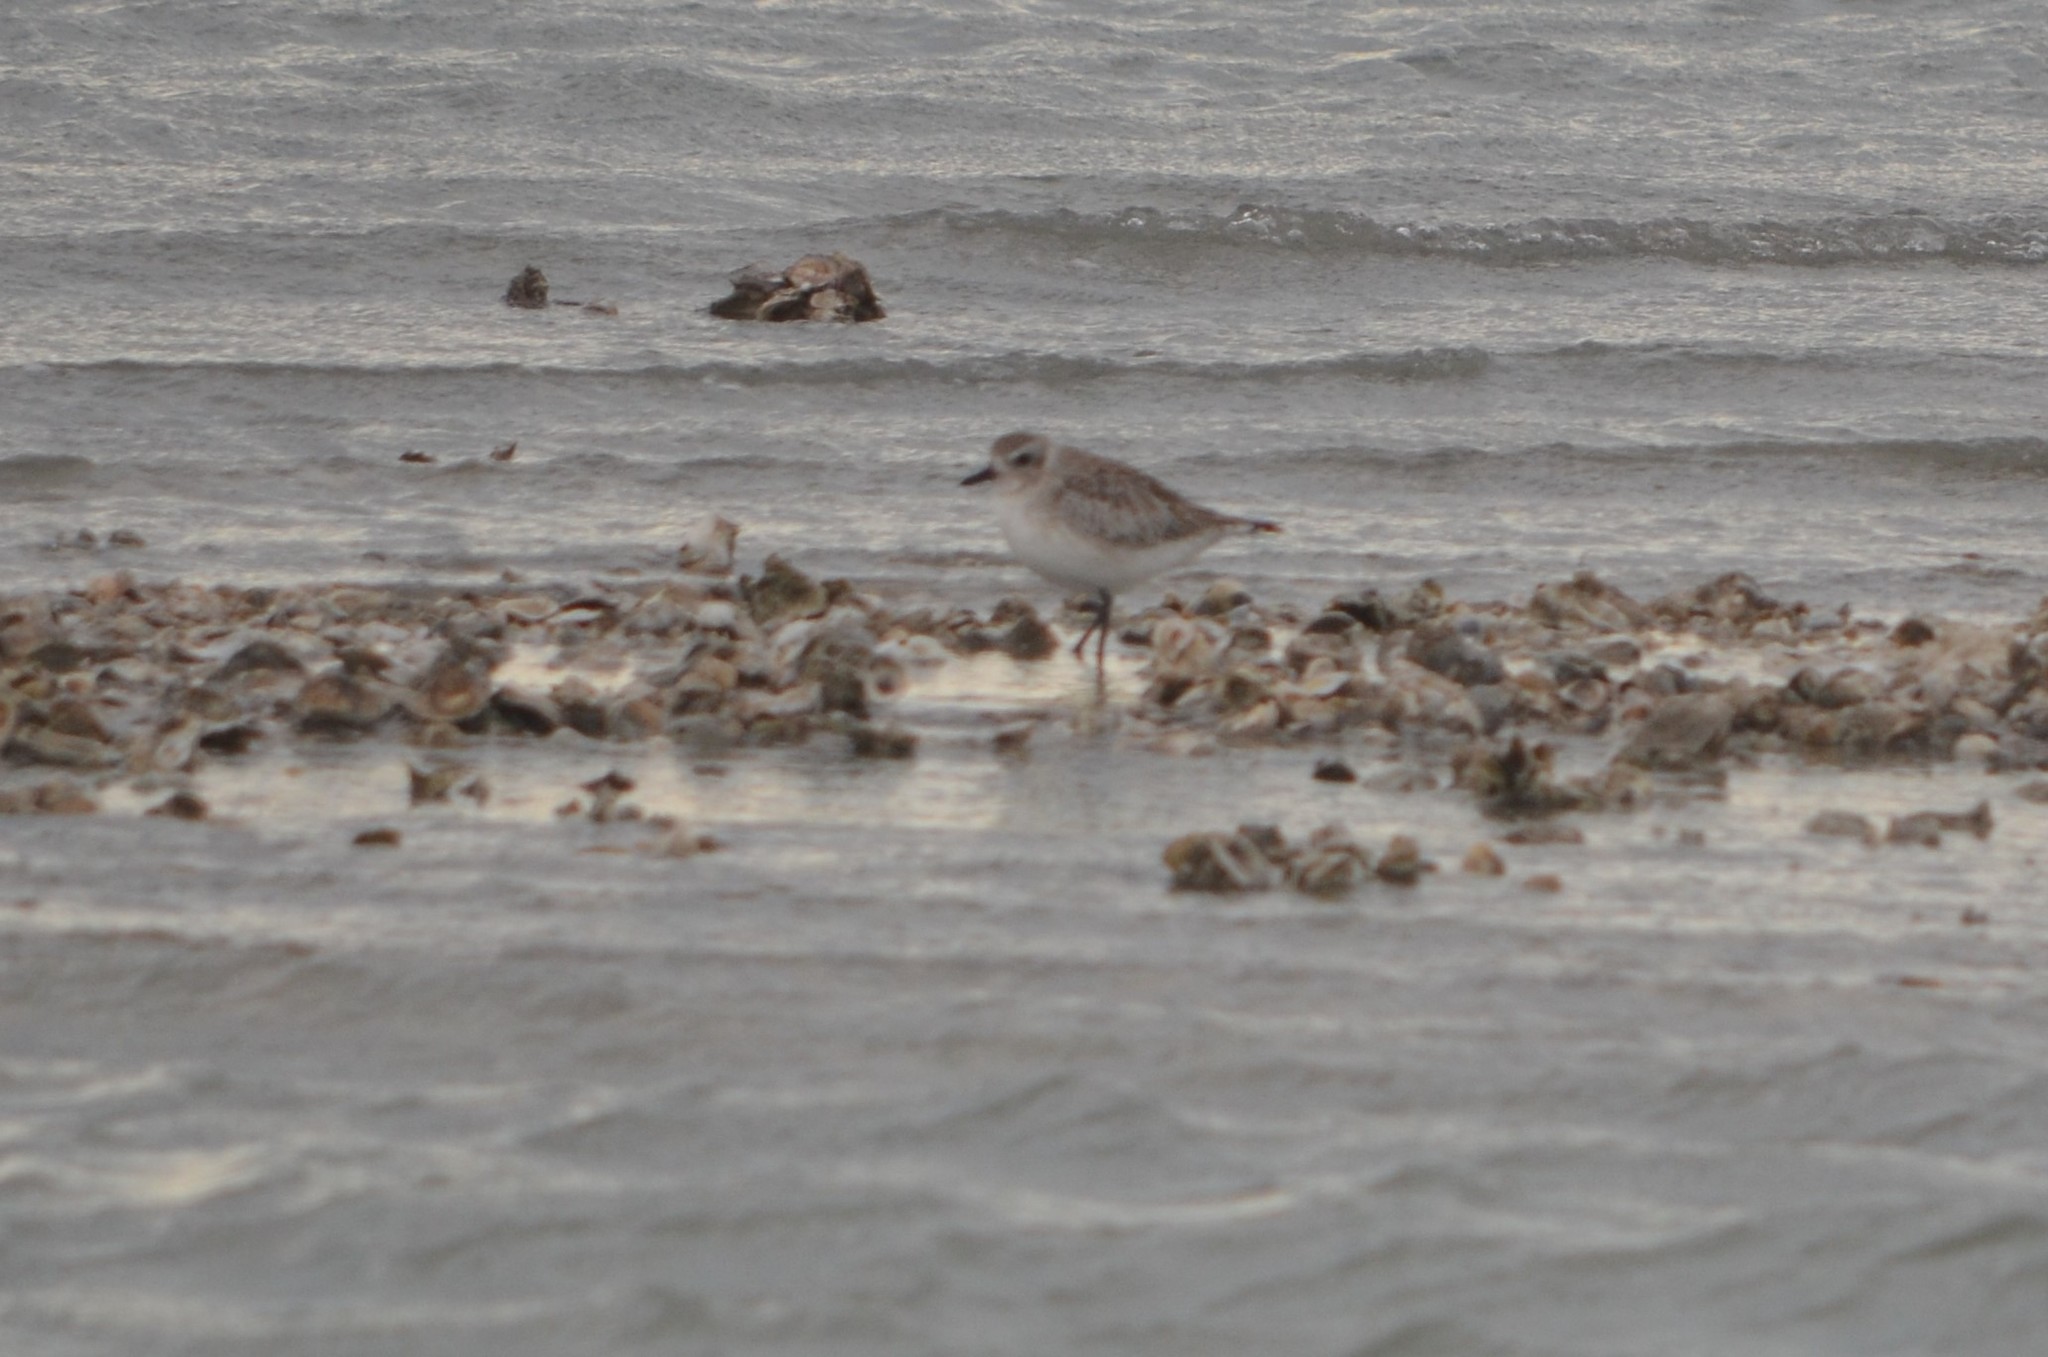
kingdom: Animalia
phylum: Chordata
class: Aves
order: Charadriiformes
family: Charadriidae
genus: Pluvialis
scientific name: Pluvialis squatarola
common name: Grey plover
